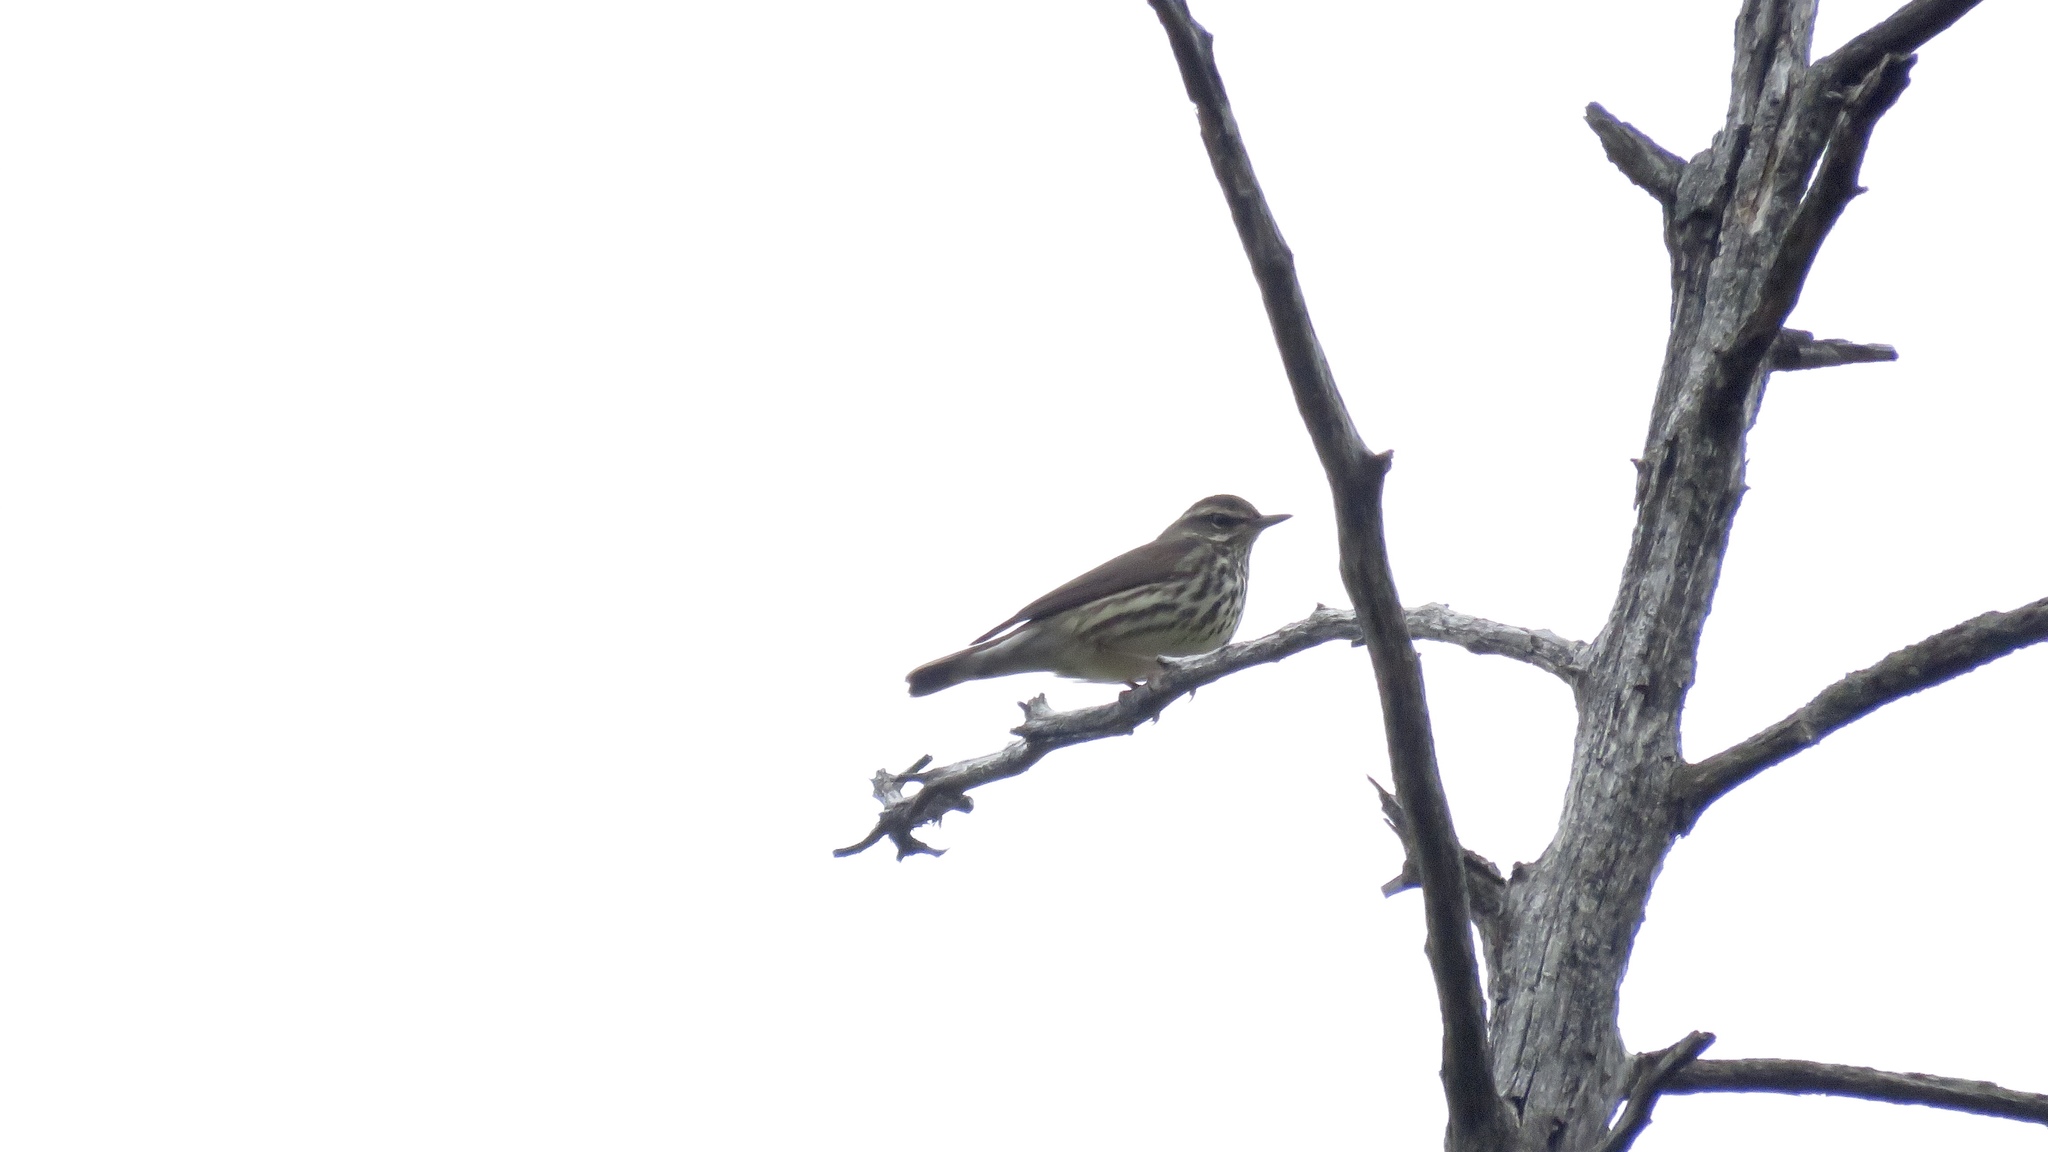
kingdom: Animalia
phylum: Chordata
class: Aves
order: Passeriformes
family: Parulidae
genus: Parkesia
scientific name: Parkesia noveboracensis
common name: Northern waterthrush
